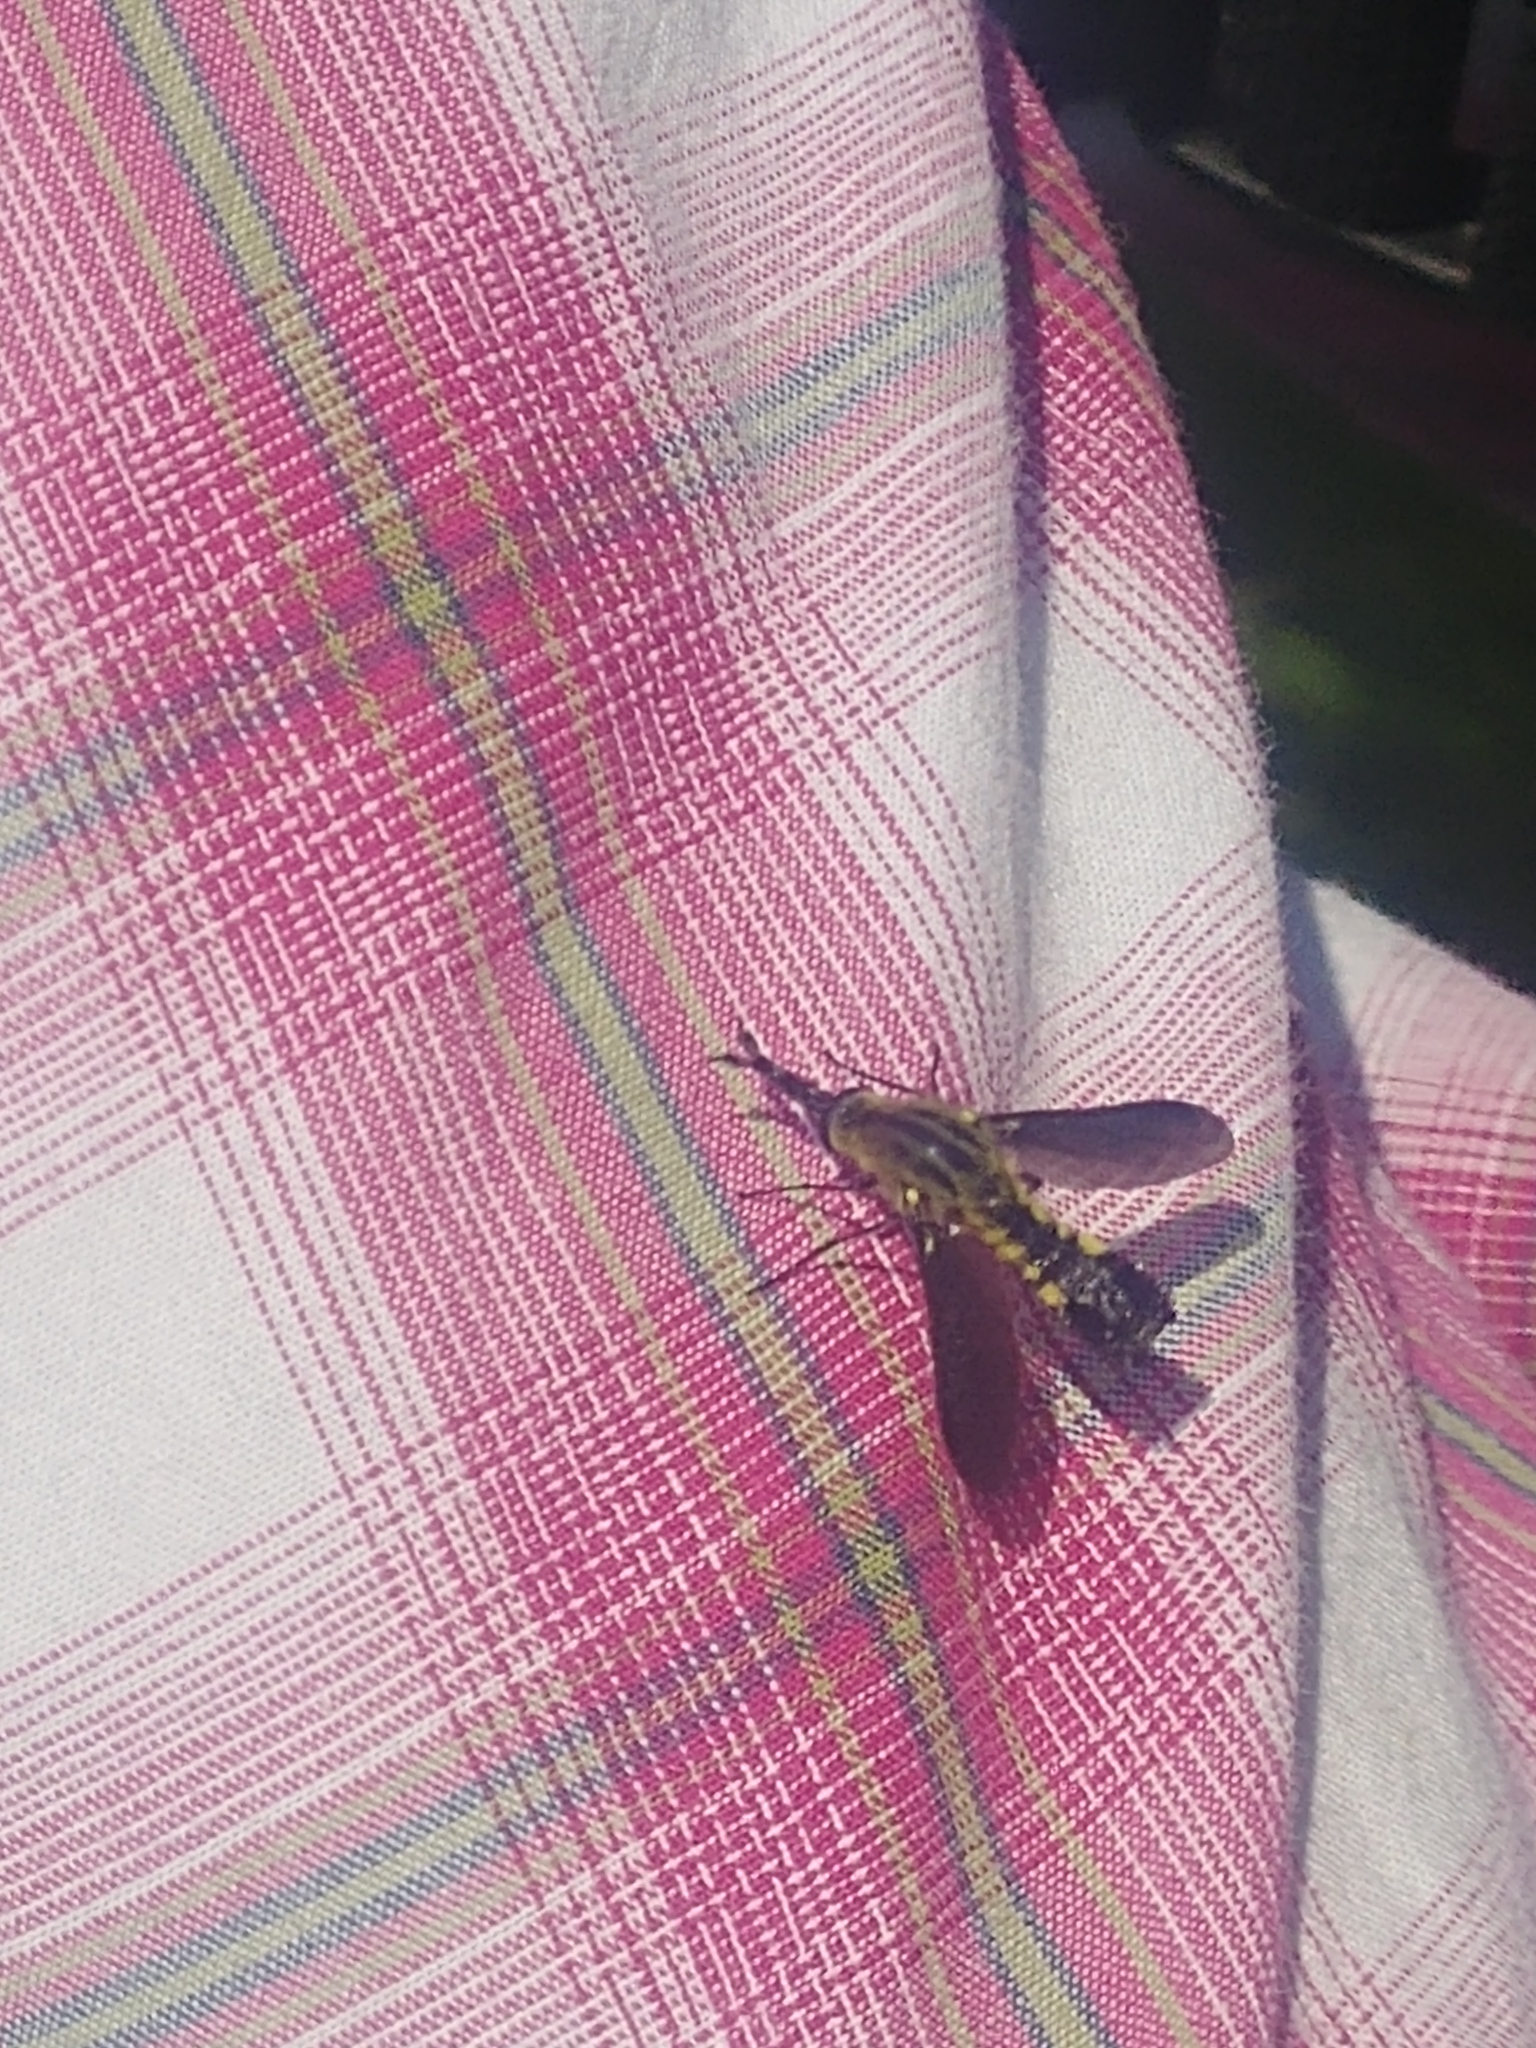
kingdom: Animalia
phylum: Arthropoda
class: Insecta
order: Diptera
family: Bombyliidae
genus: Lepidophora
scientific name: Lepidophora lutea
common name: Hunchback bee fly
